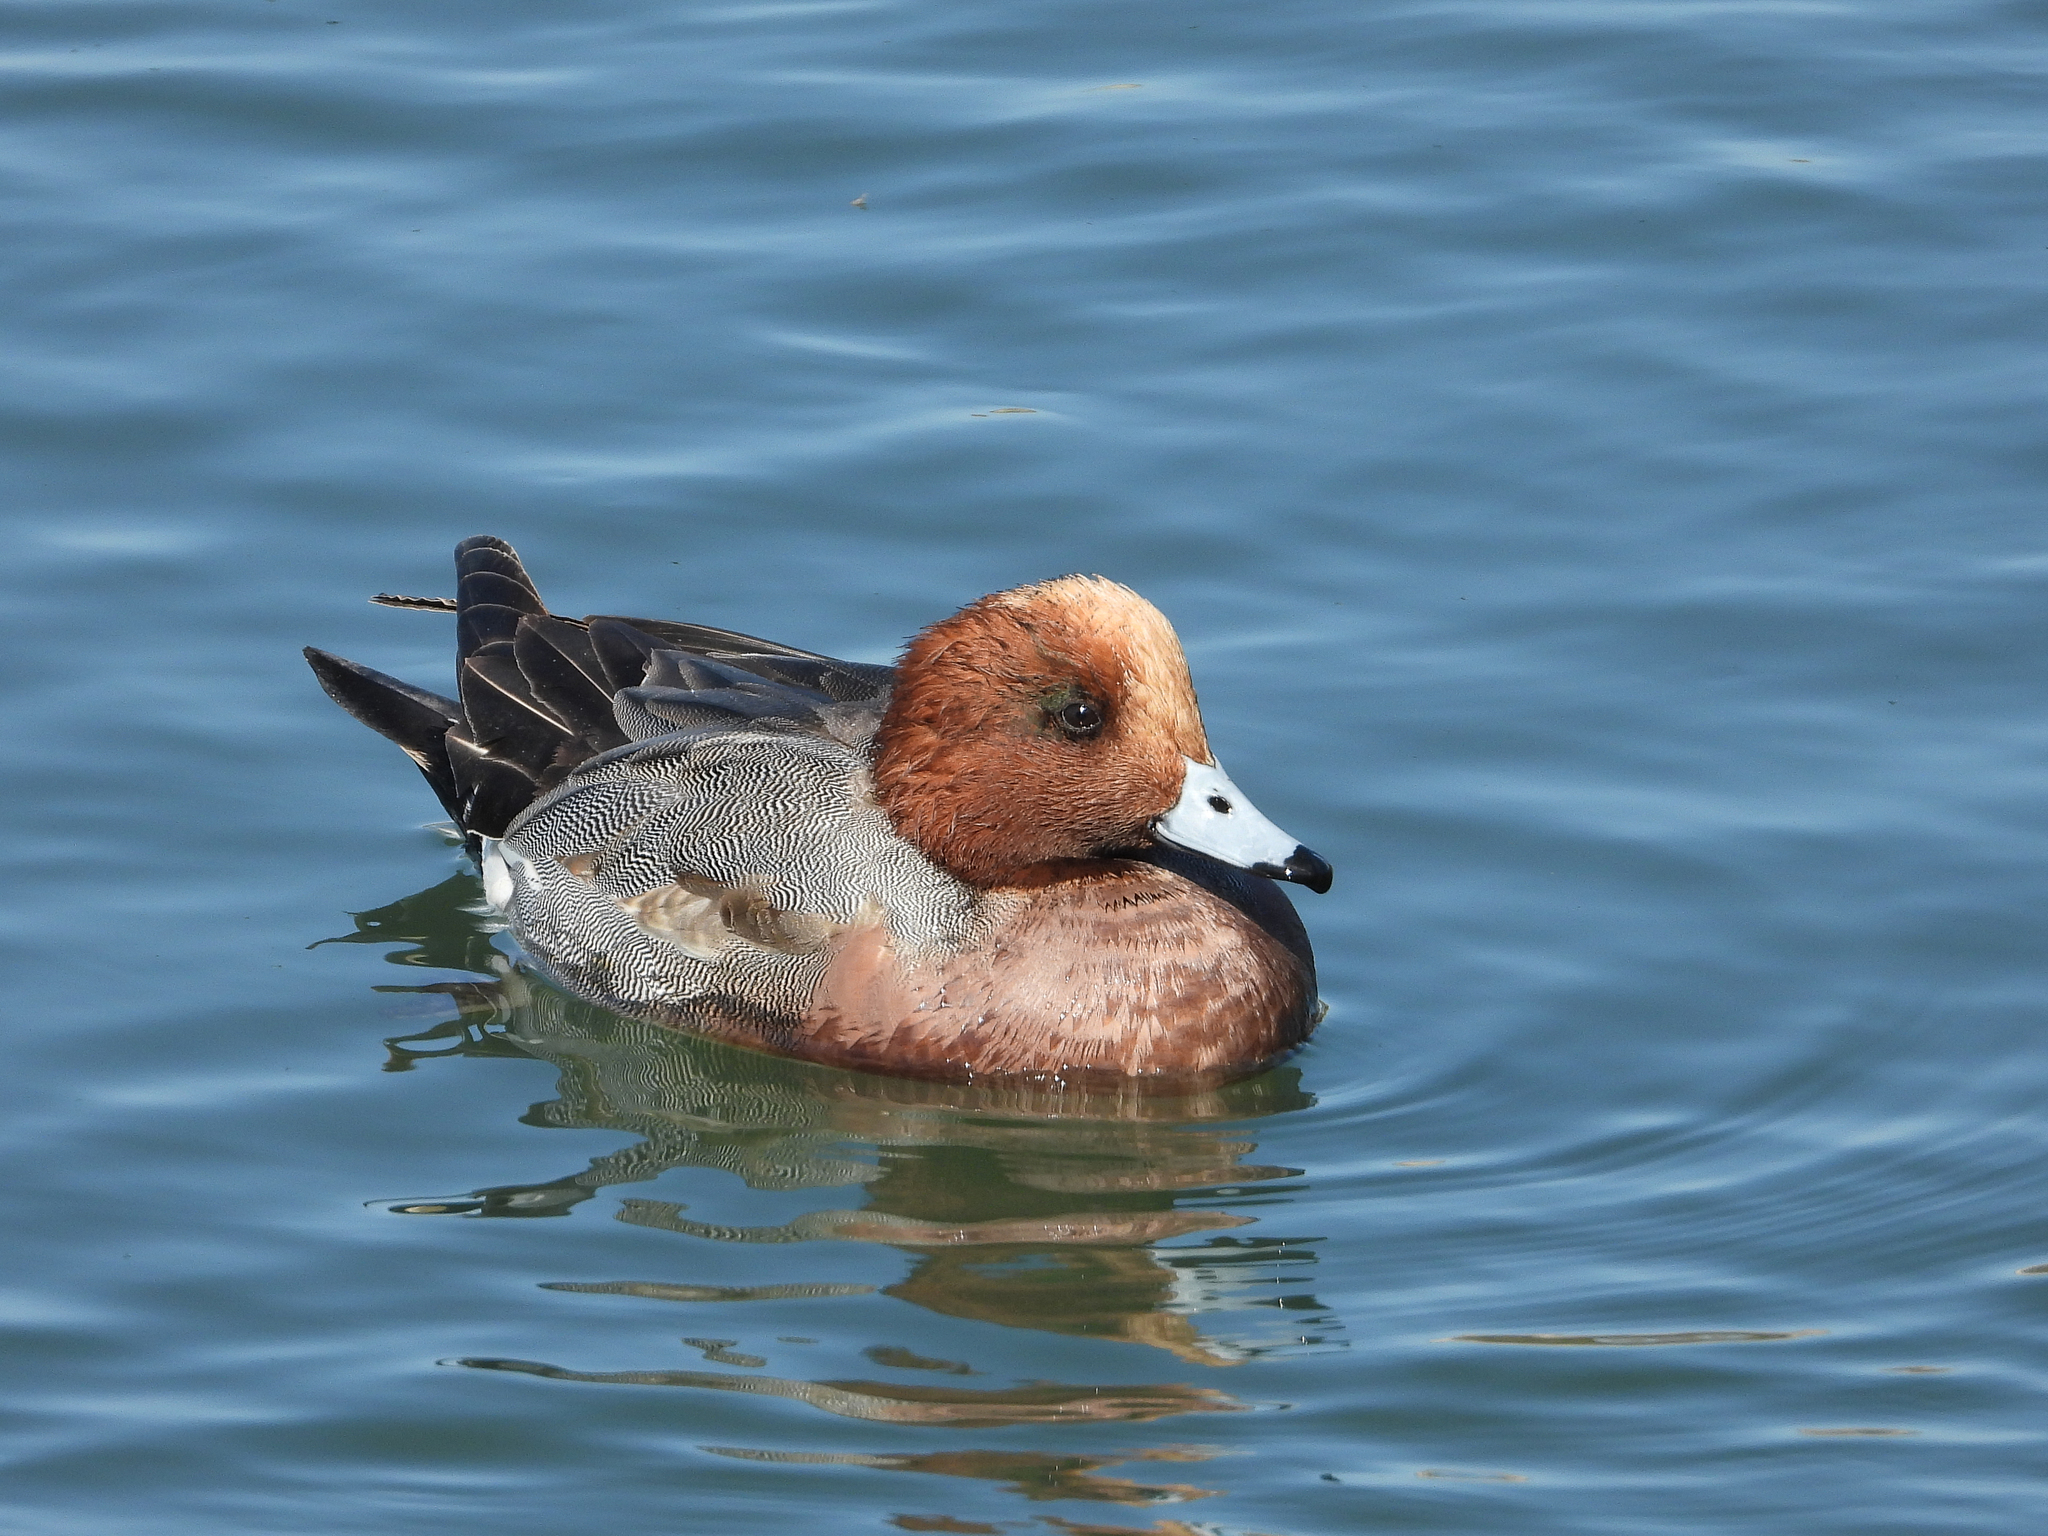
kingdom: Animalia
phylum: Chordata
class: Aves
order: Anseriformes
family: Anatidae
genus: Mareca
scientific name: Mareca penelope
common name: Eurasian wigeon
